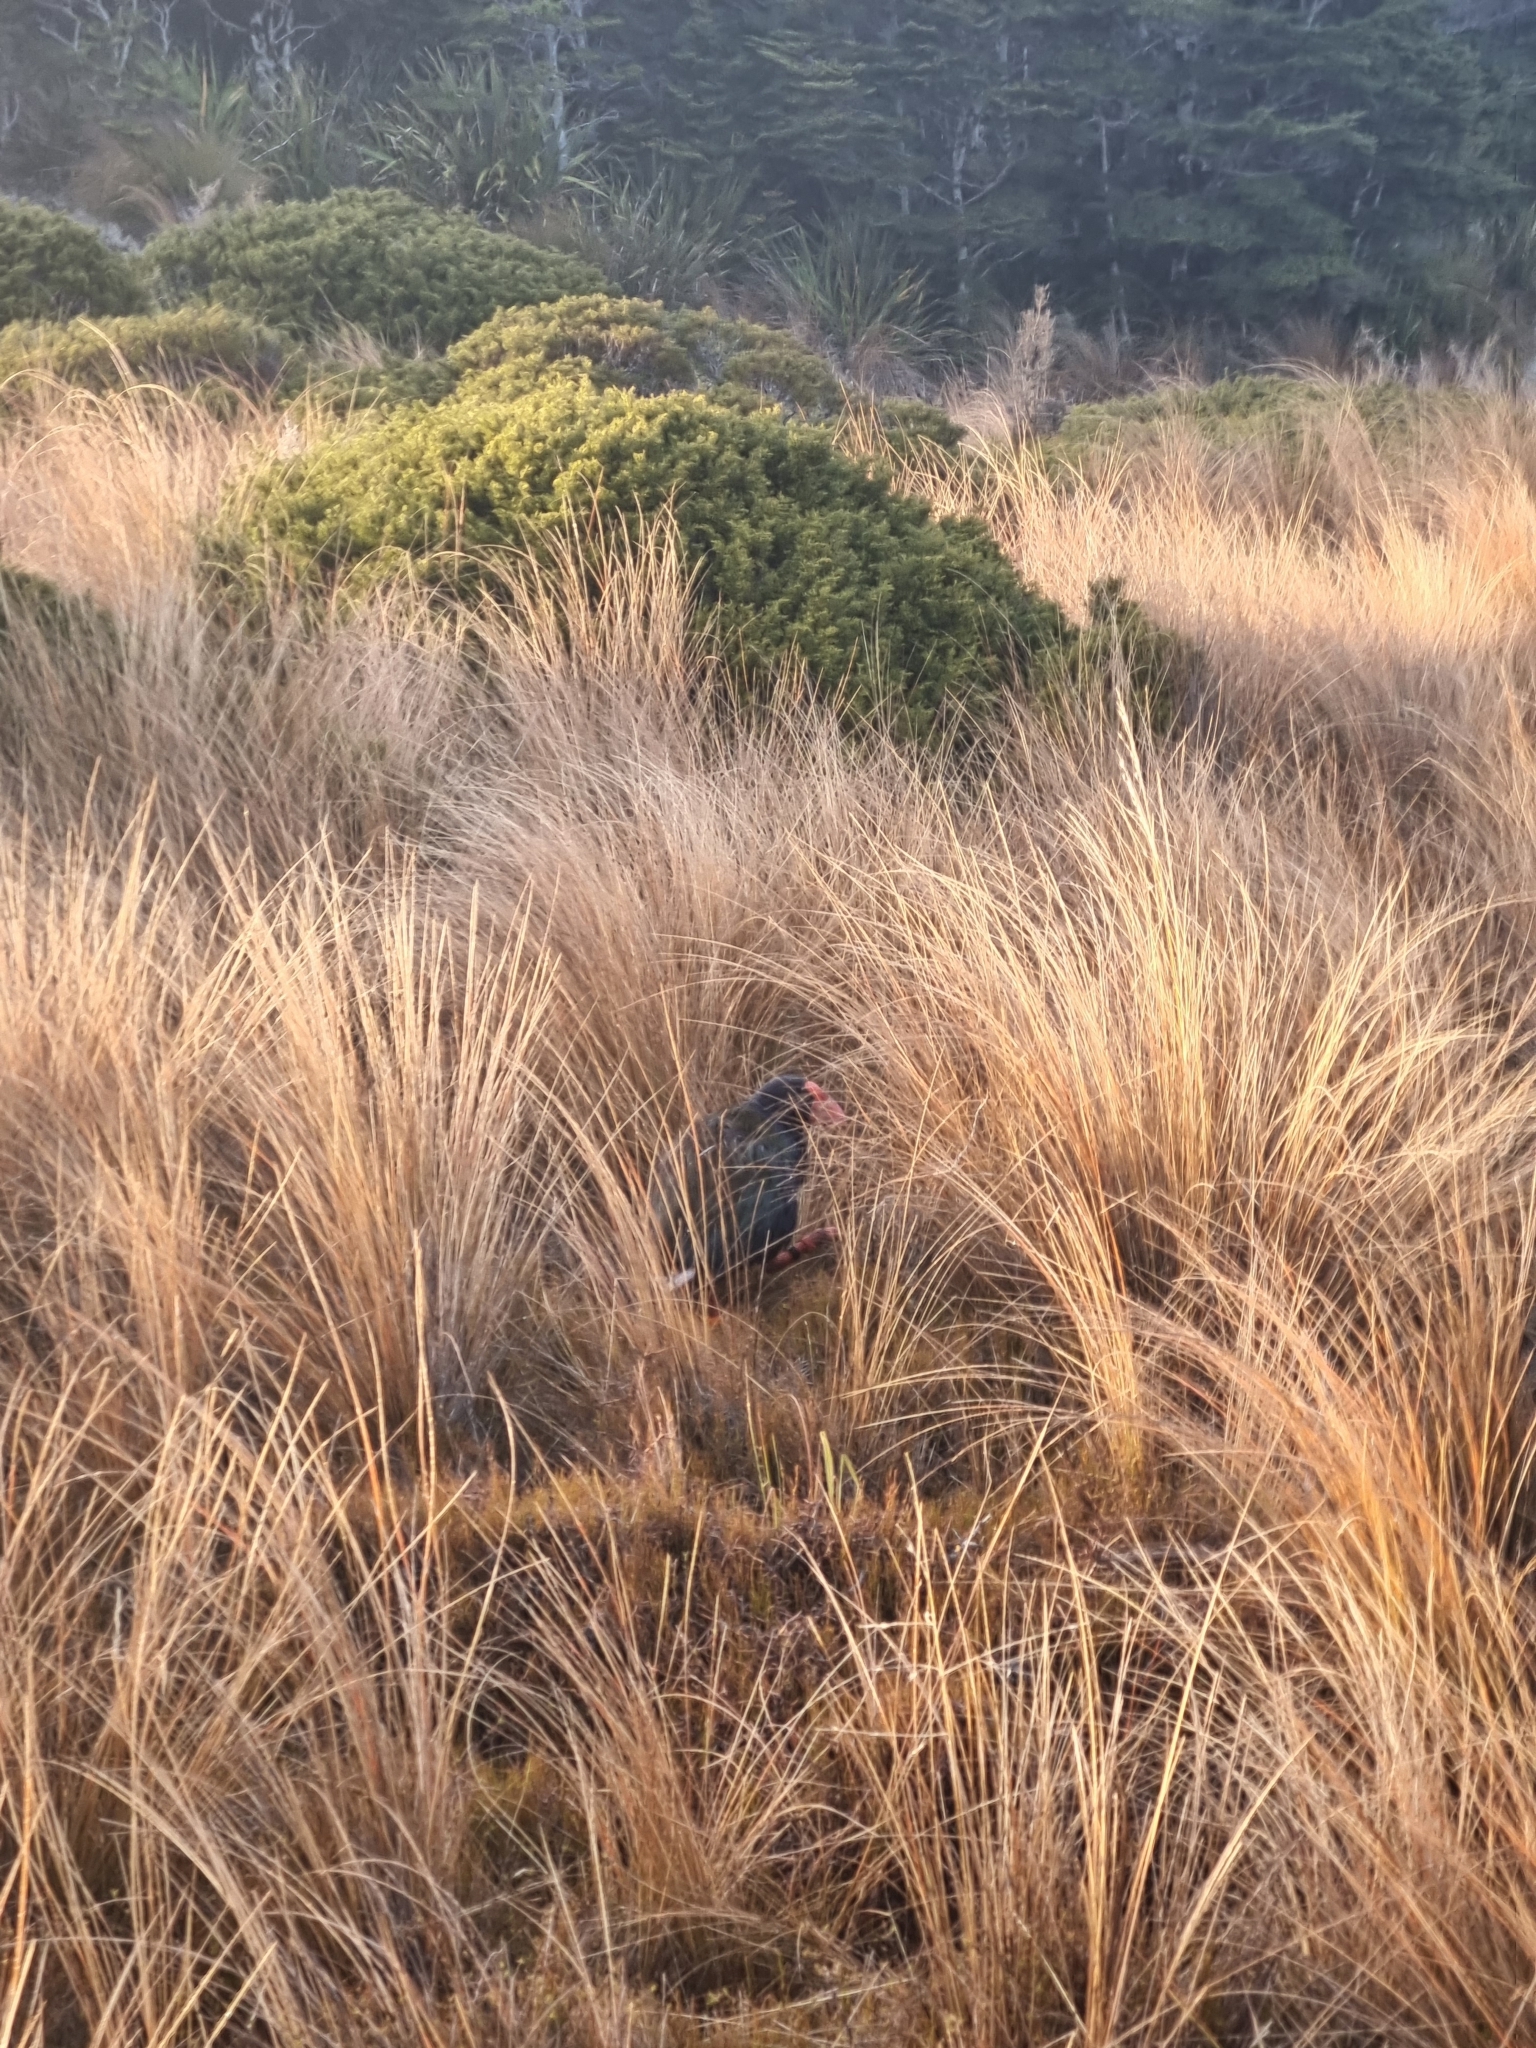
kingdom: Animalia
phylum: Chordata
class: Aves
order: Gruiformes
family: Rallidae
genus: Porphyrio
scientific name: Porphyrio hochstetteri
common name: South island takahe
